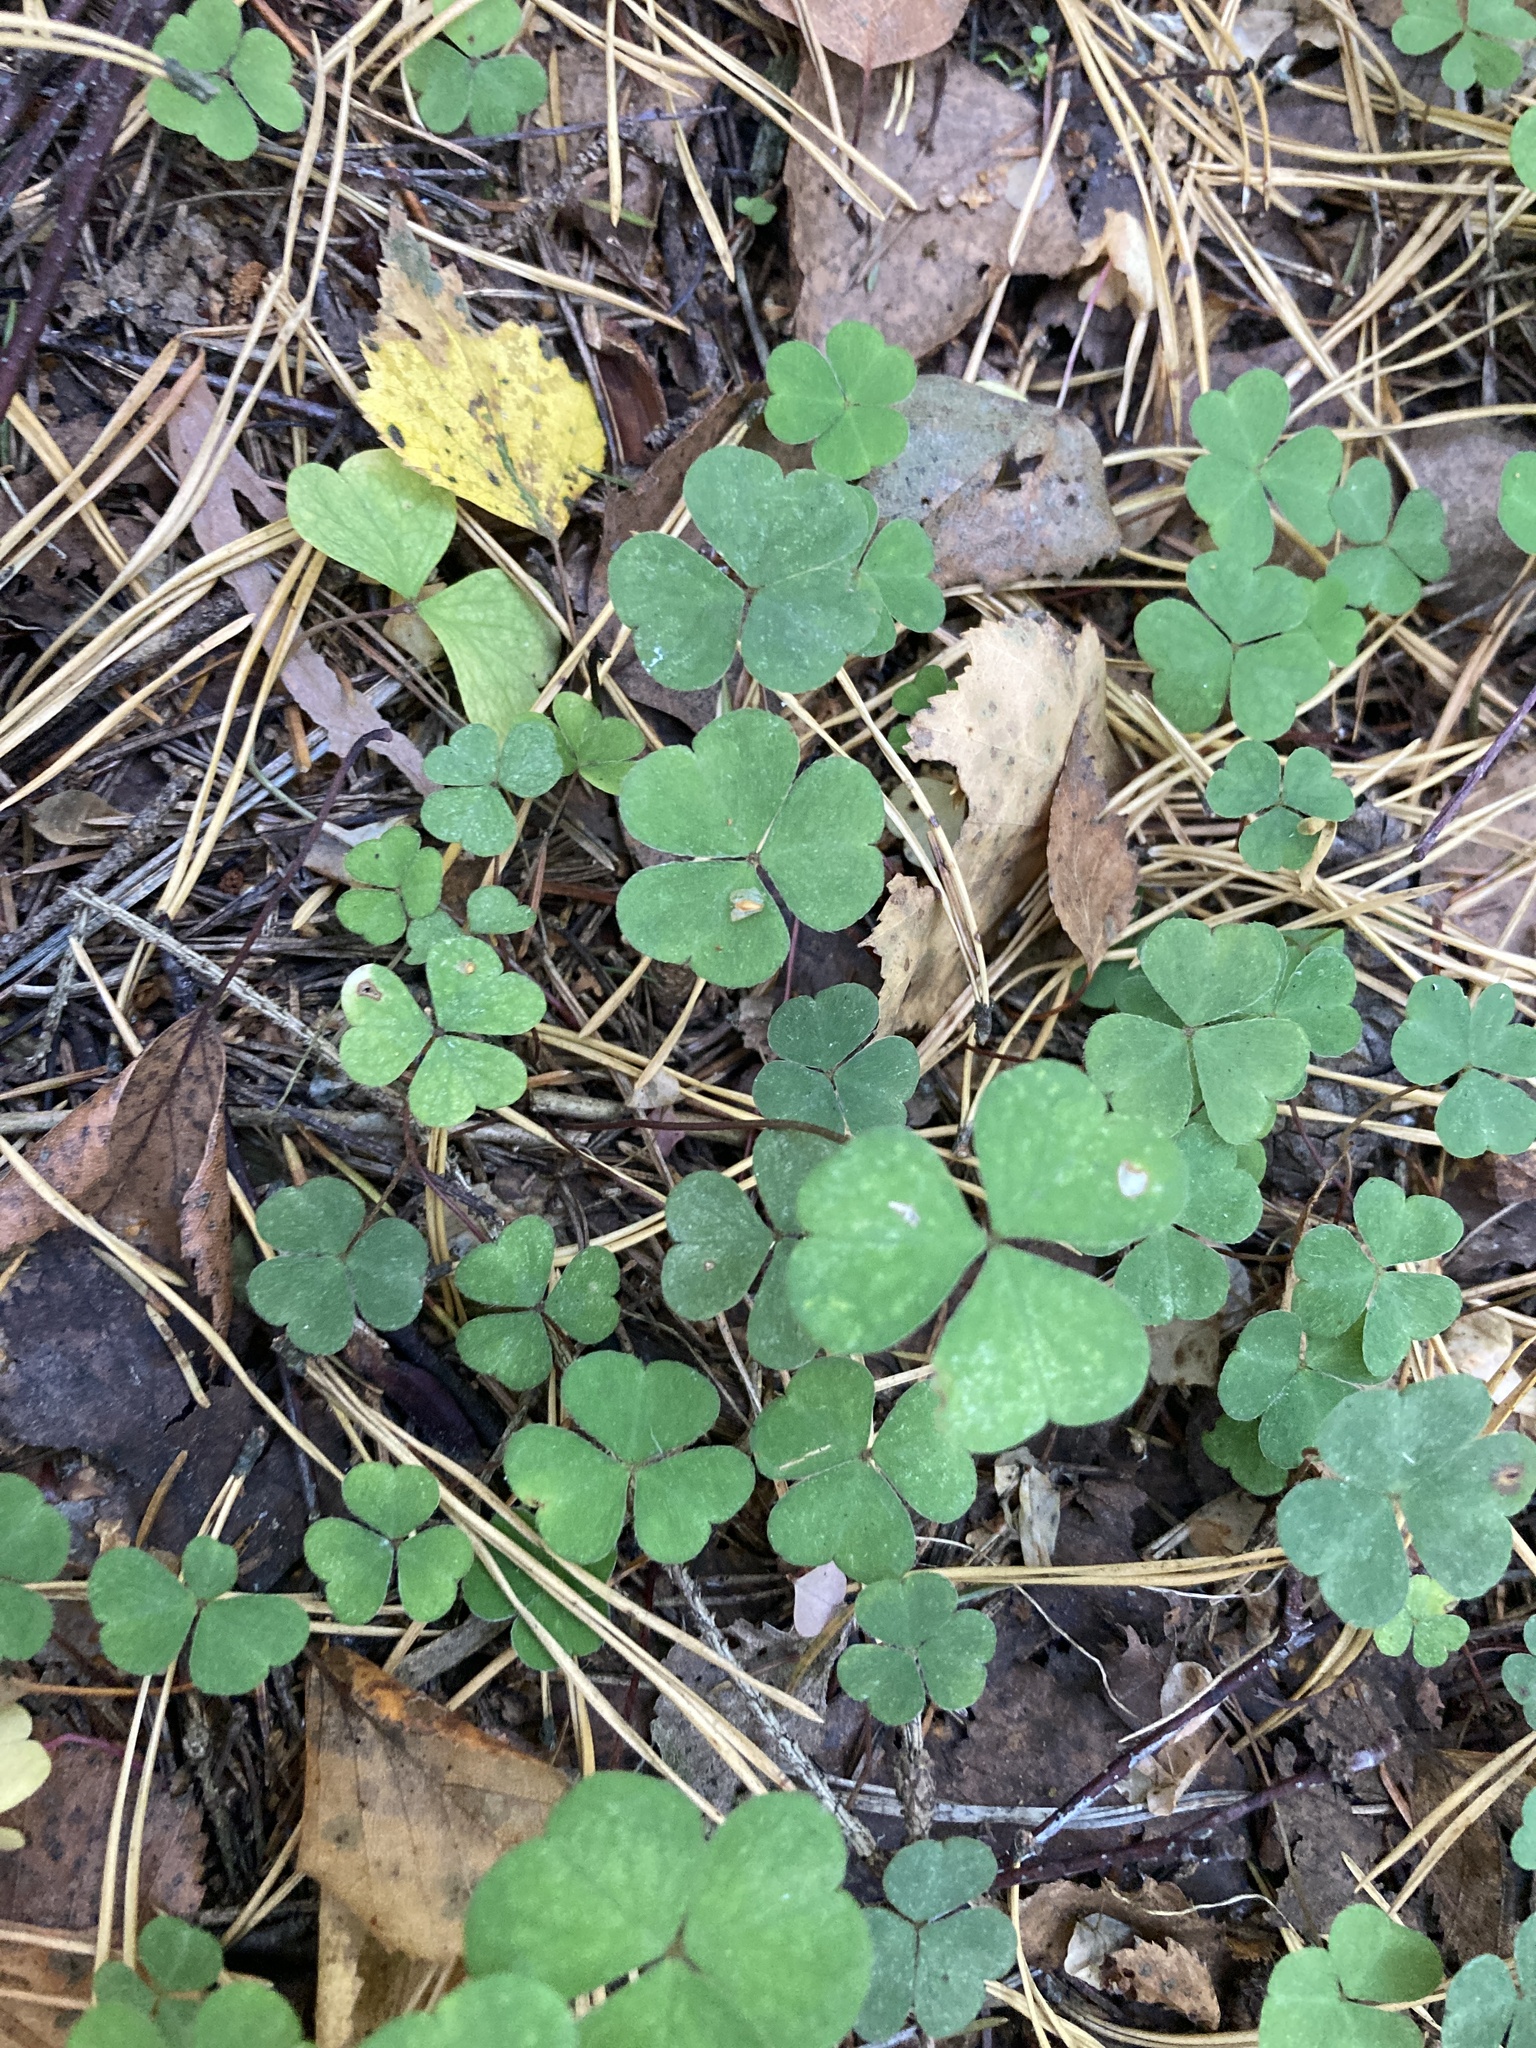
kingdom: Plantae
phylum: Tracheophyta
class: Magnoliopsida
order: Oxalidales
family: Oxalidaceae
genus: Oxalis
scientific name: Oxalis acetosella
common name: Wood-sorrel
